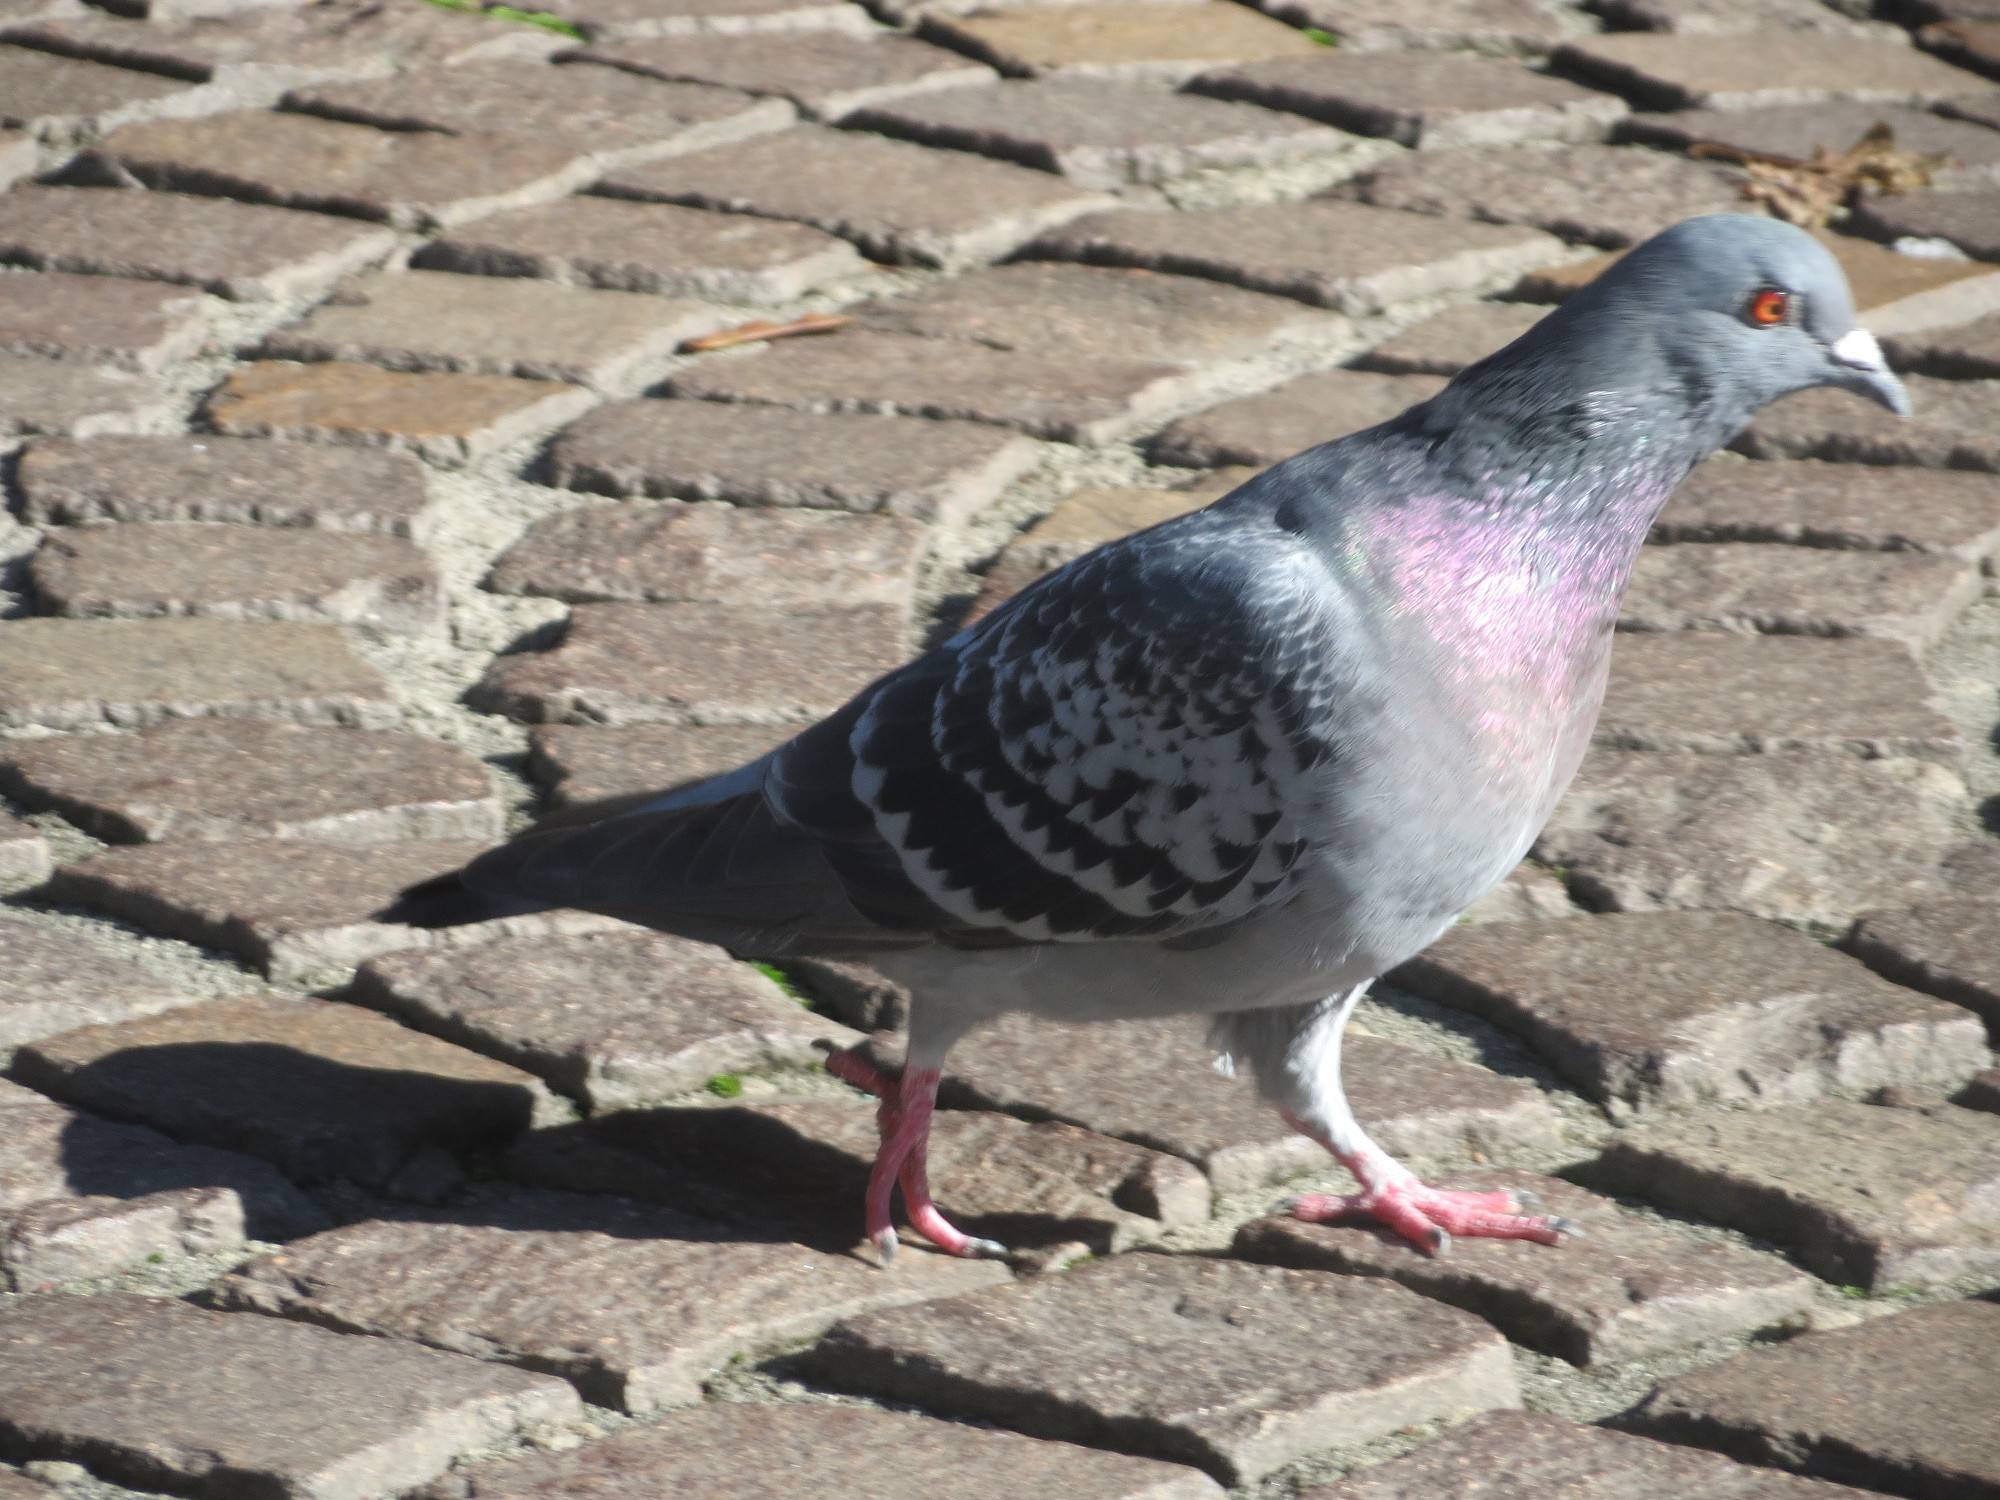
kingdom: Animalia
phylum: Chordata
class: Aves
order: Columbiformes
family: Columbidae
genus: Columba
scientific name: Columba livia
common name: Rock pigeon
